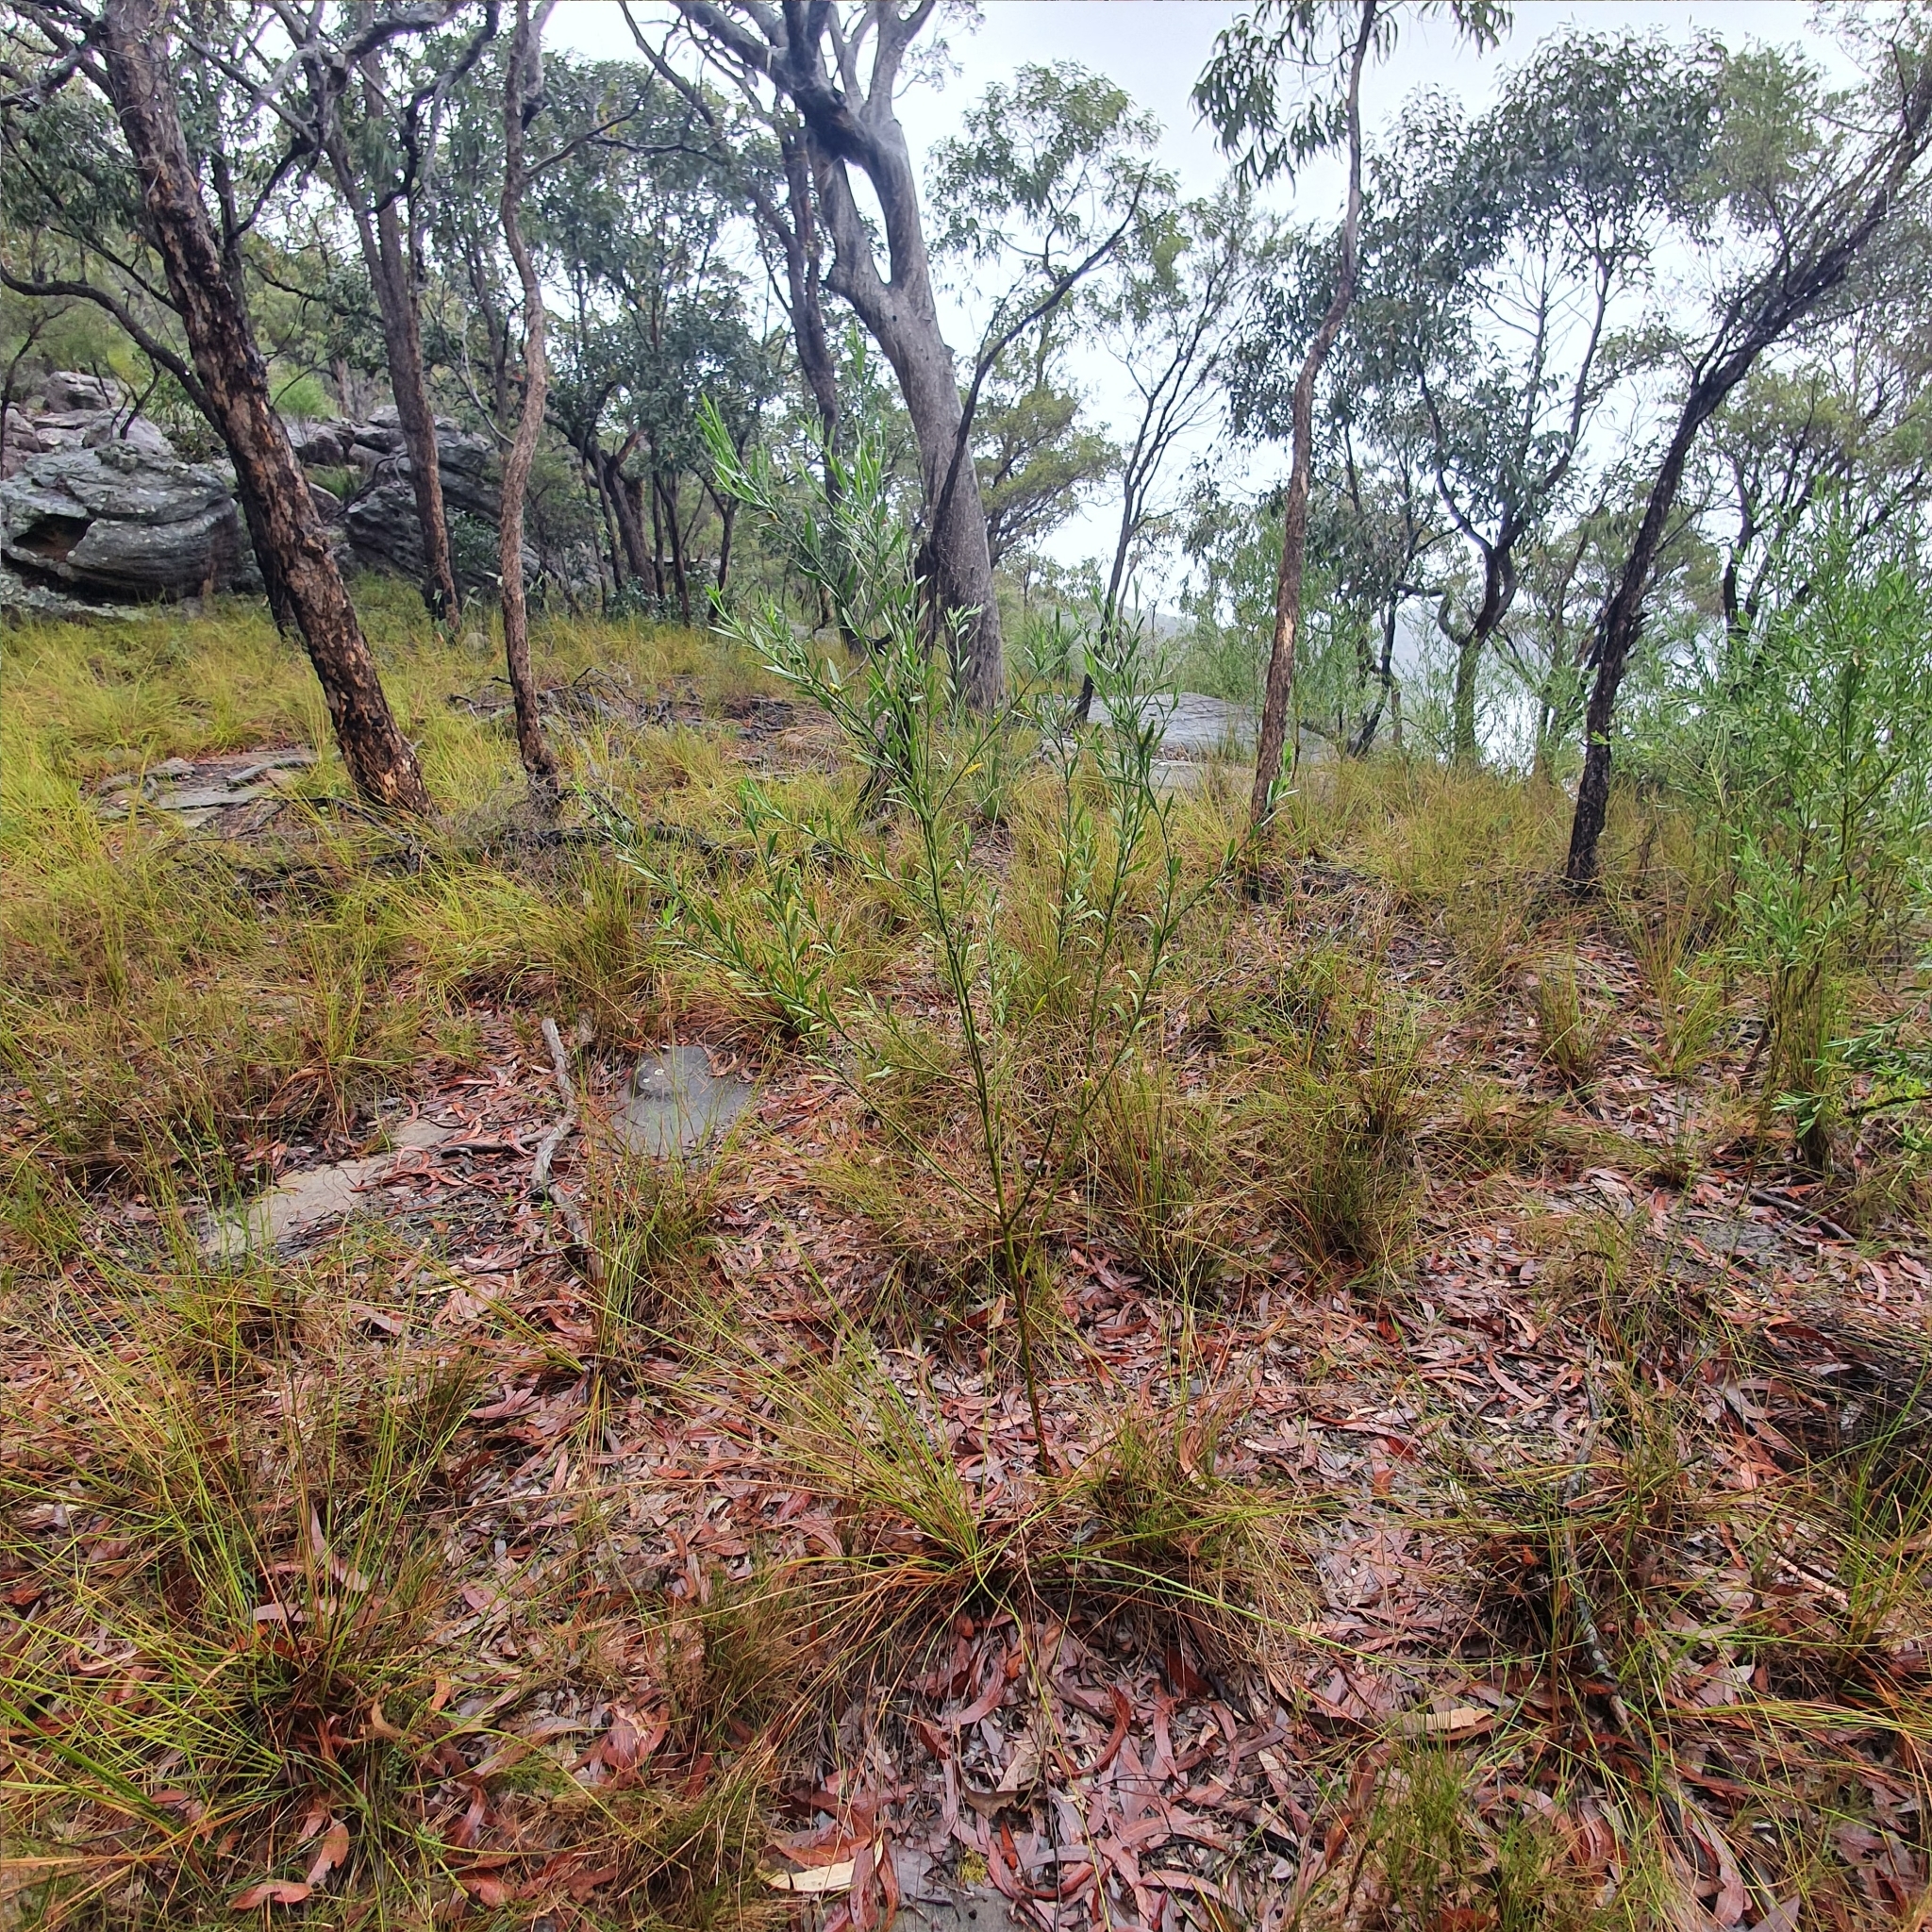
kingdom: Plantae
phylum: Tracheophyta
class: Magnoliopsida
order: Sapindales
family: Rutaceae
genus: Eriostemon
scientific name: Eriostemon australasius
